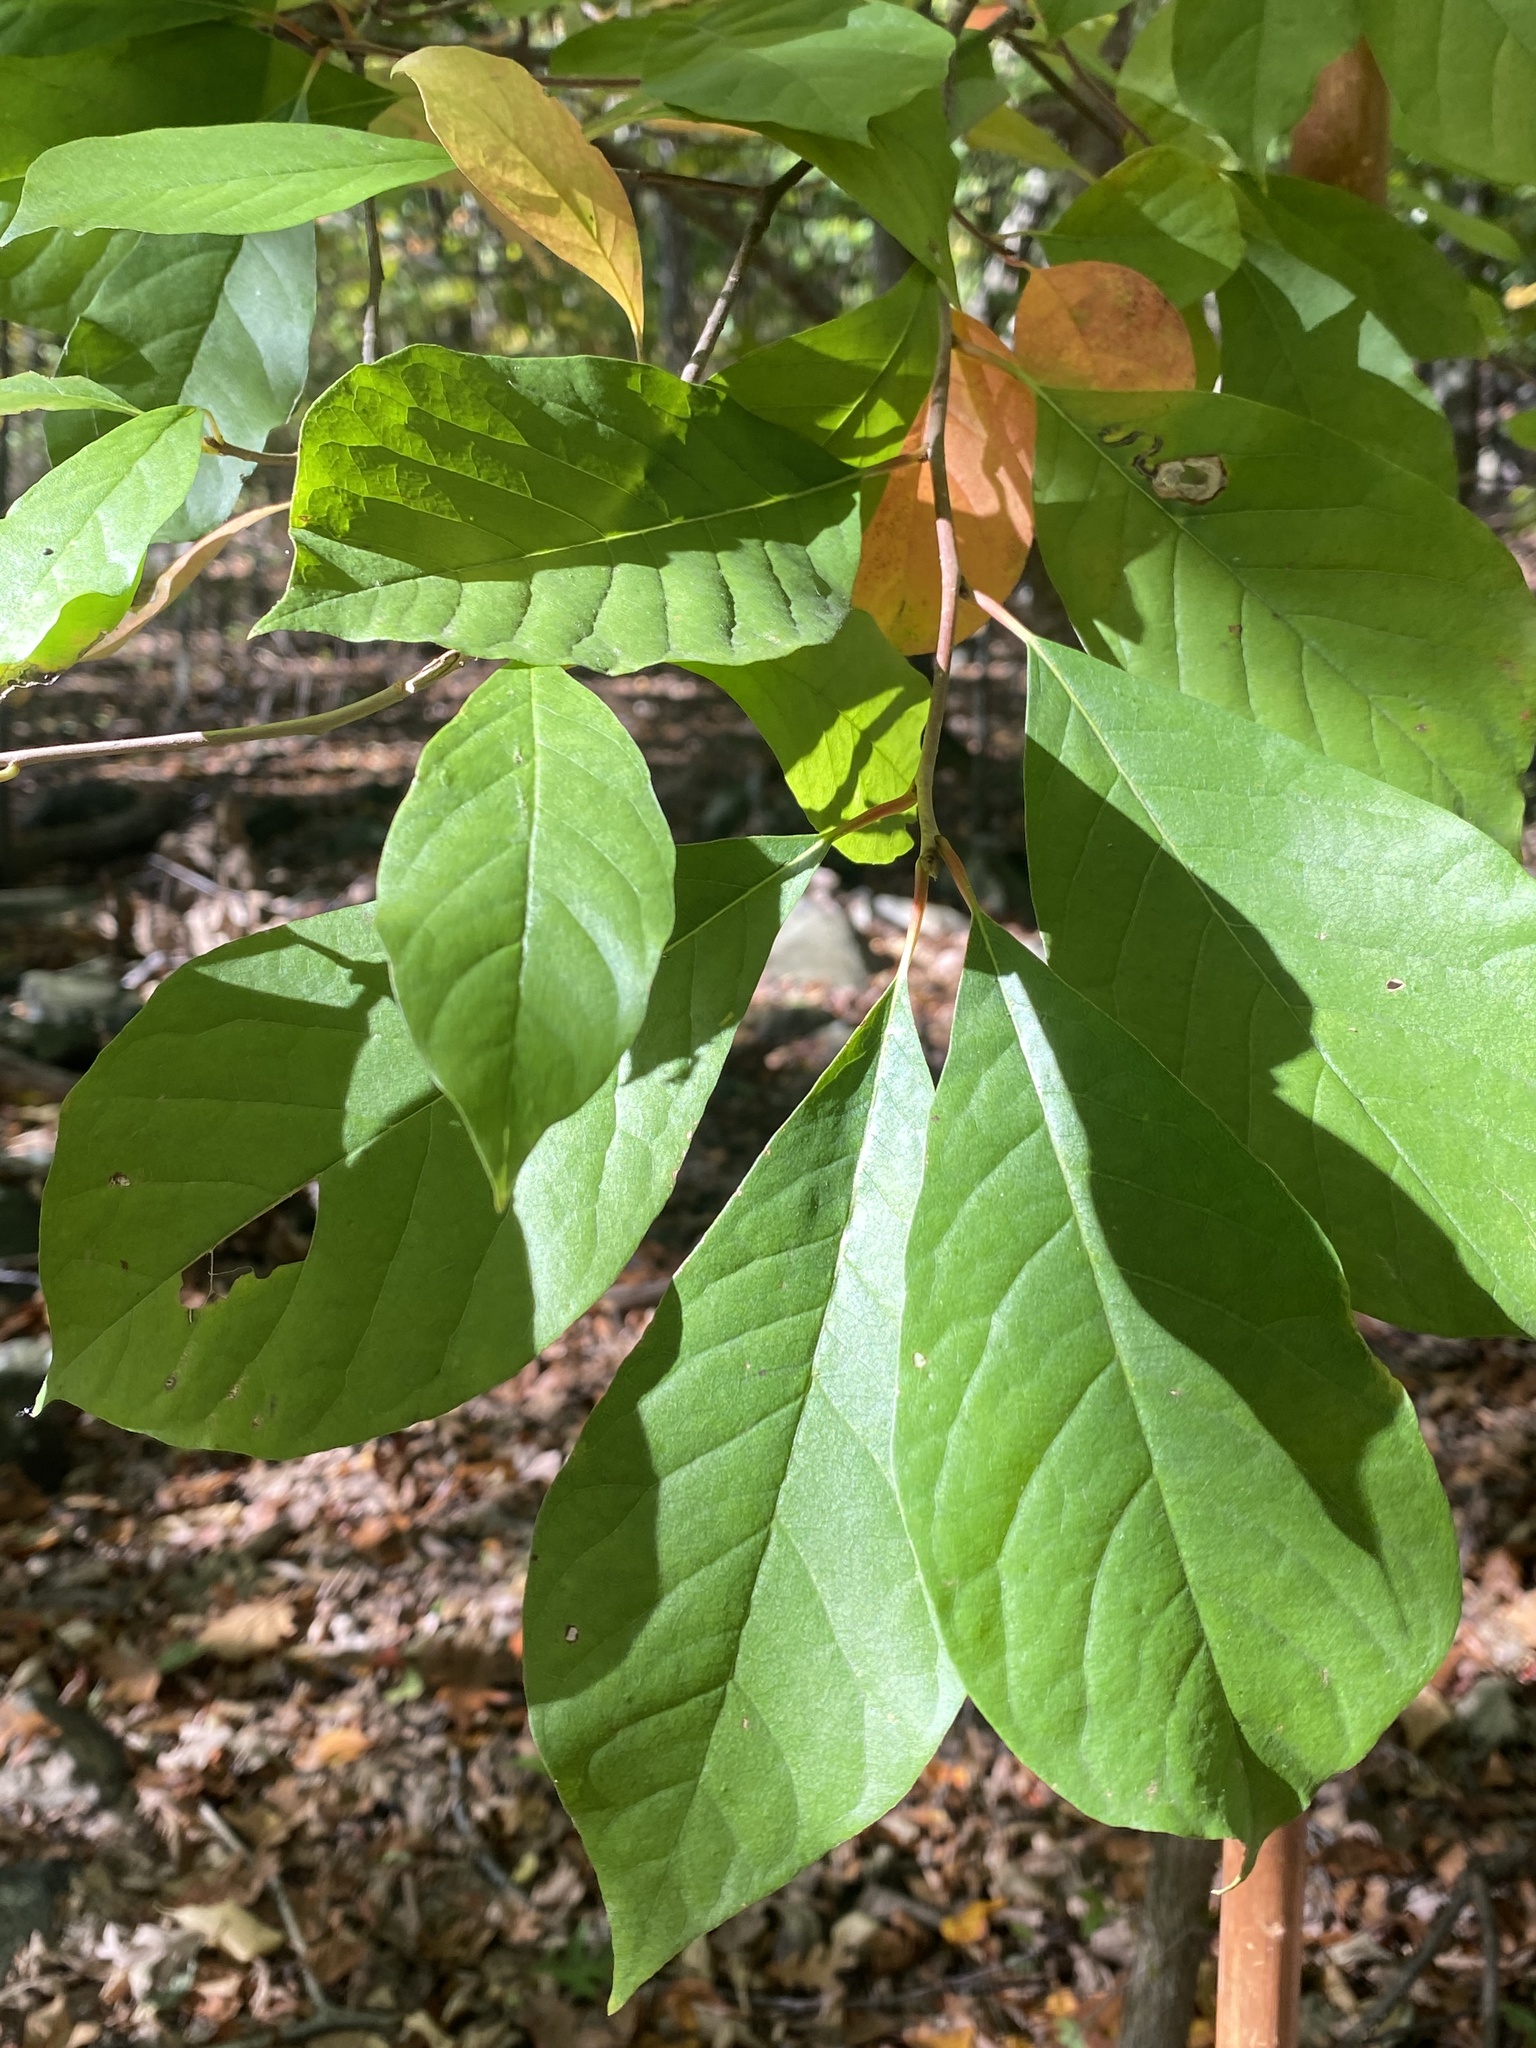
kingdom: Plantae
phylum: Tracheophyta
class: Magnoliopsida
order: Cornales
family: Nyssaceae
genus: Nyssa
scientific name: Nyssa sylvatica
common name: Black tupelo
